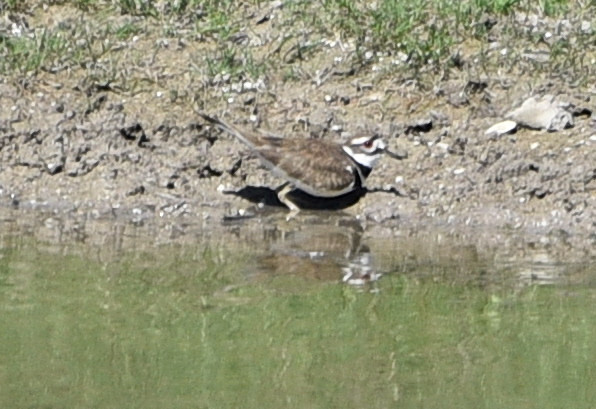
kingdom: Animalia
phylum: Chordata
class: Aves
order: Charadriiformes
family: Charadriidae
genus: Charadrius
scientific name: Charadrius vociferus
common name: Killdeer
